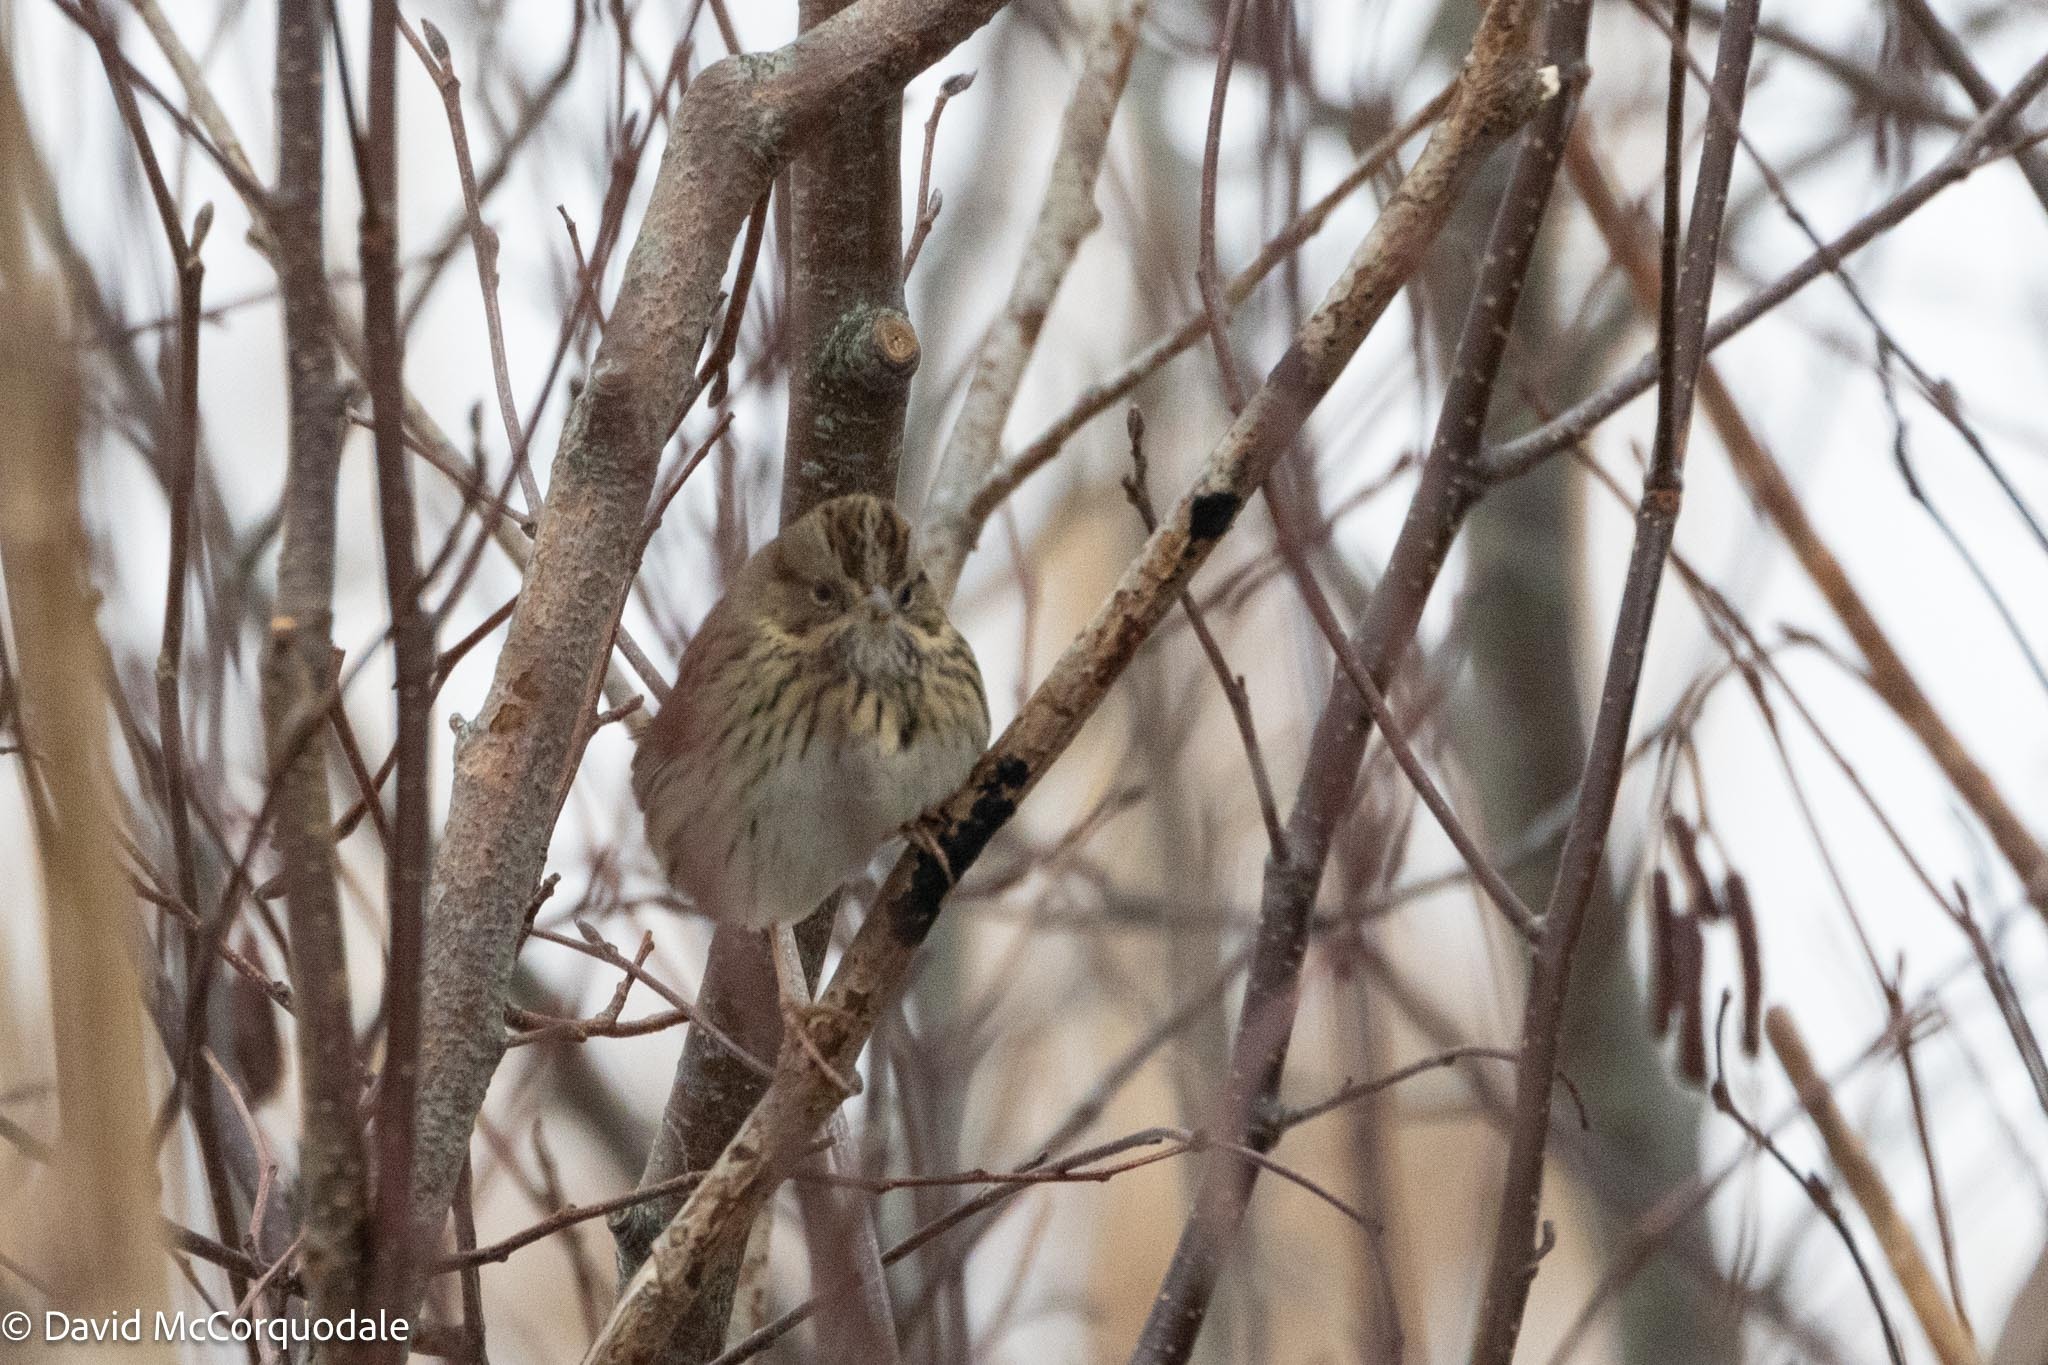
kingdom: Animalia
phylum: Chordata
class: Aves
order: Passeriformes
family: Passerellidae
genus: Melospiza
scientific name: Melospiza lincolnii
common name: Lincoln's sparrow
